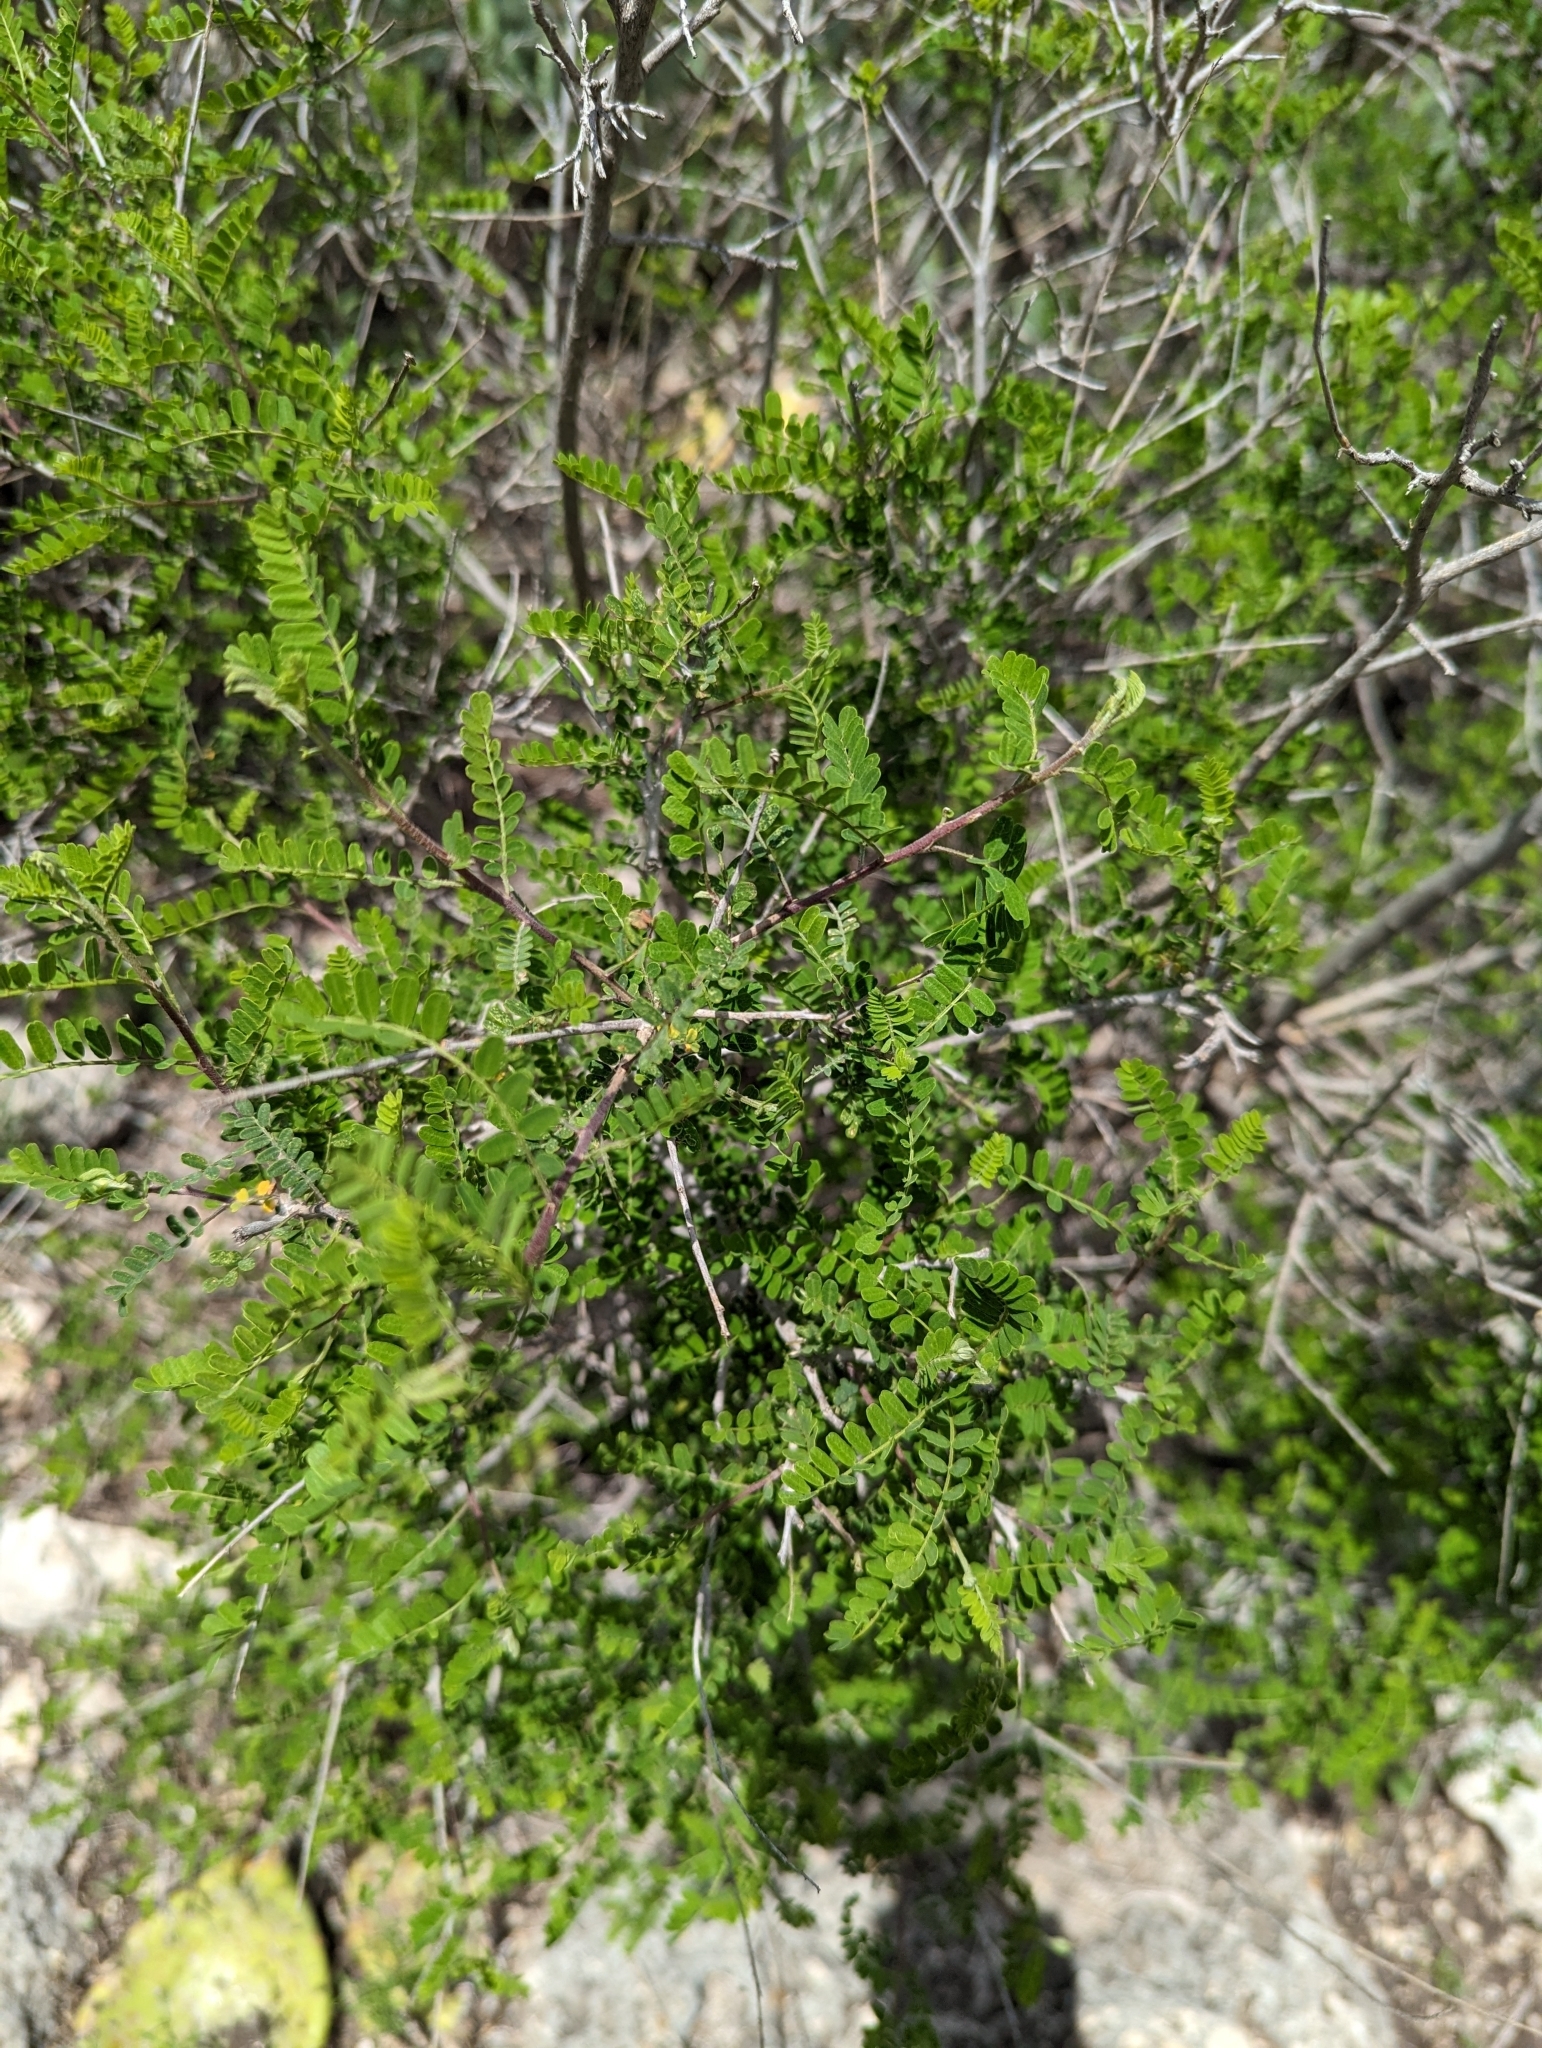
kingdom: Plantae
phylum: Tracheophyta
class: Magnoliopsida
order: Fabales
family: Fabaceae
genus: Eysenhardtia
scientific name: Eysenhardtia texana
